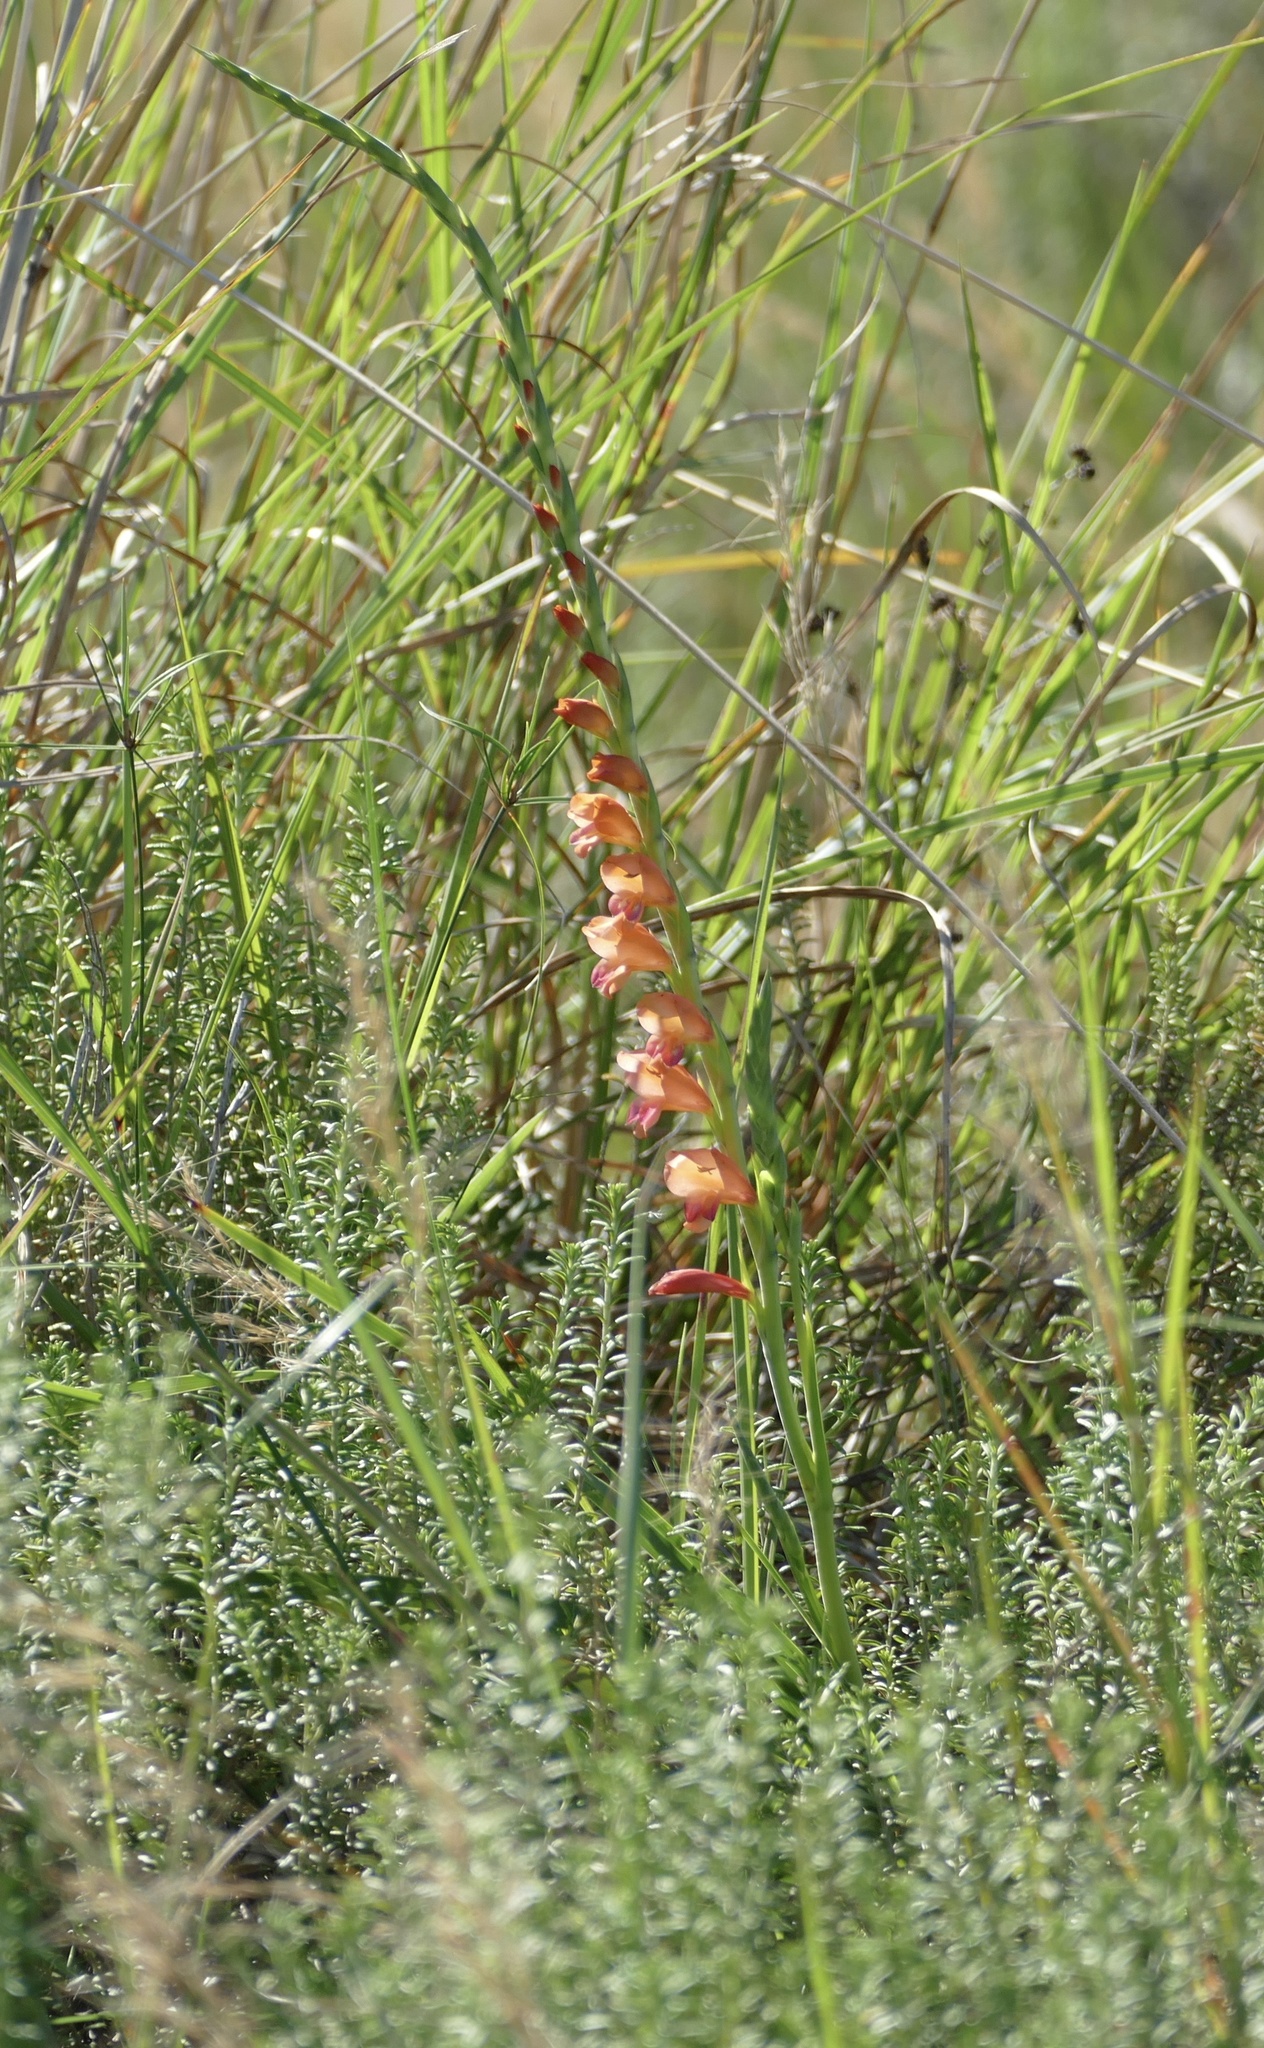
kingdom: Plantae
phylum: Tracheophyta
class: Liliopsida
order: Asparagales
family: Iridaceae
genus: Gladiolus
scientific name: Gladiolus densiflorus
